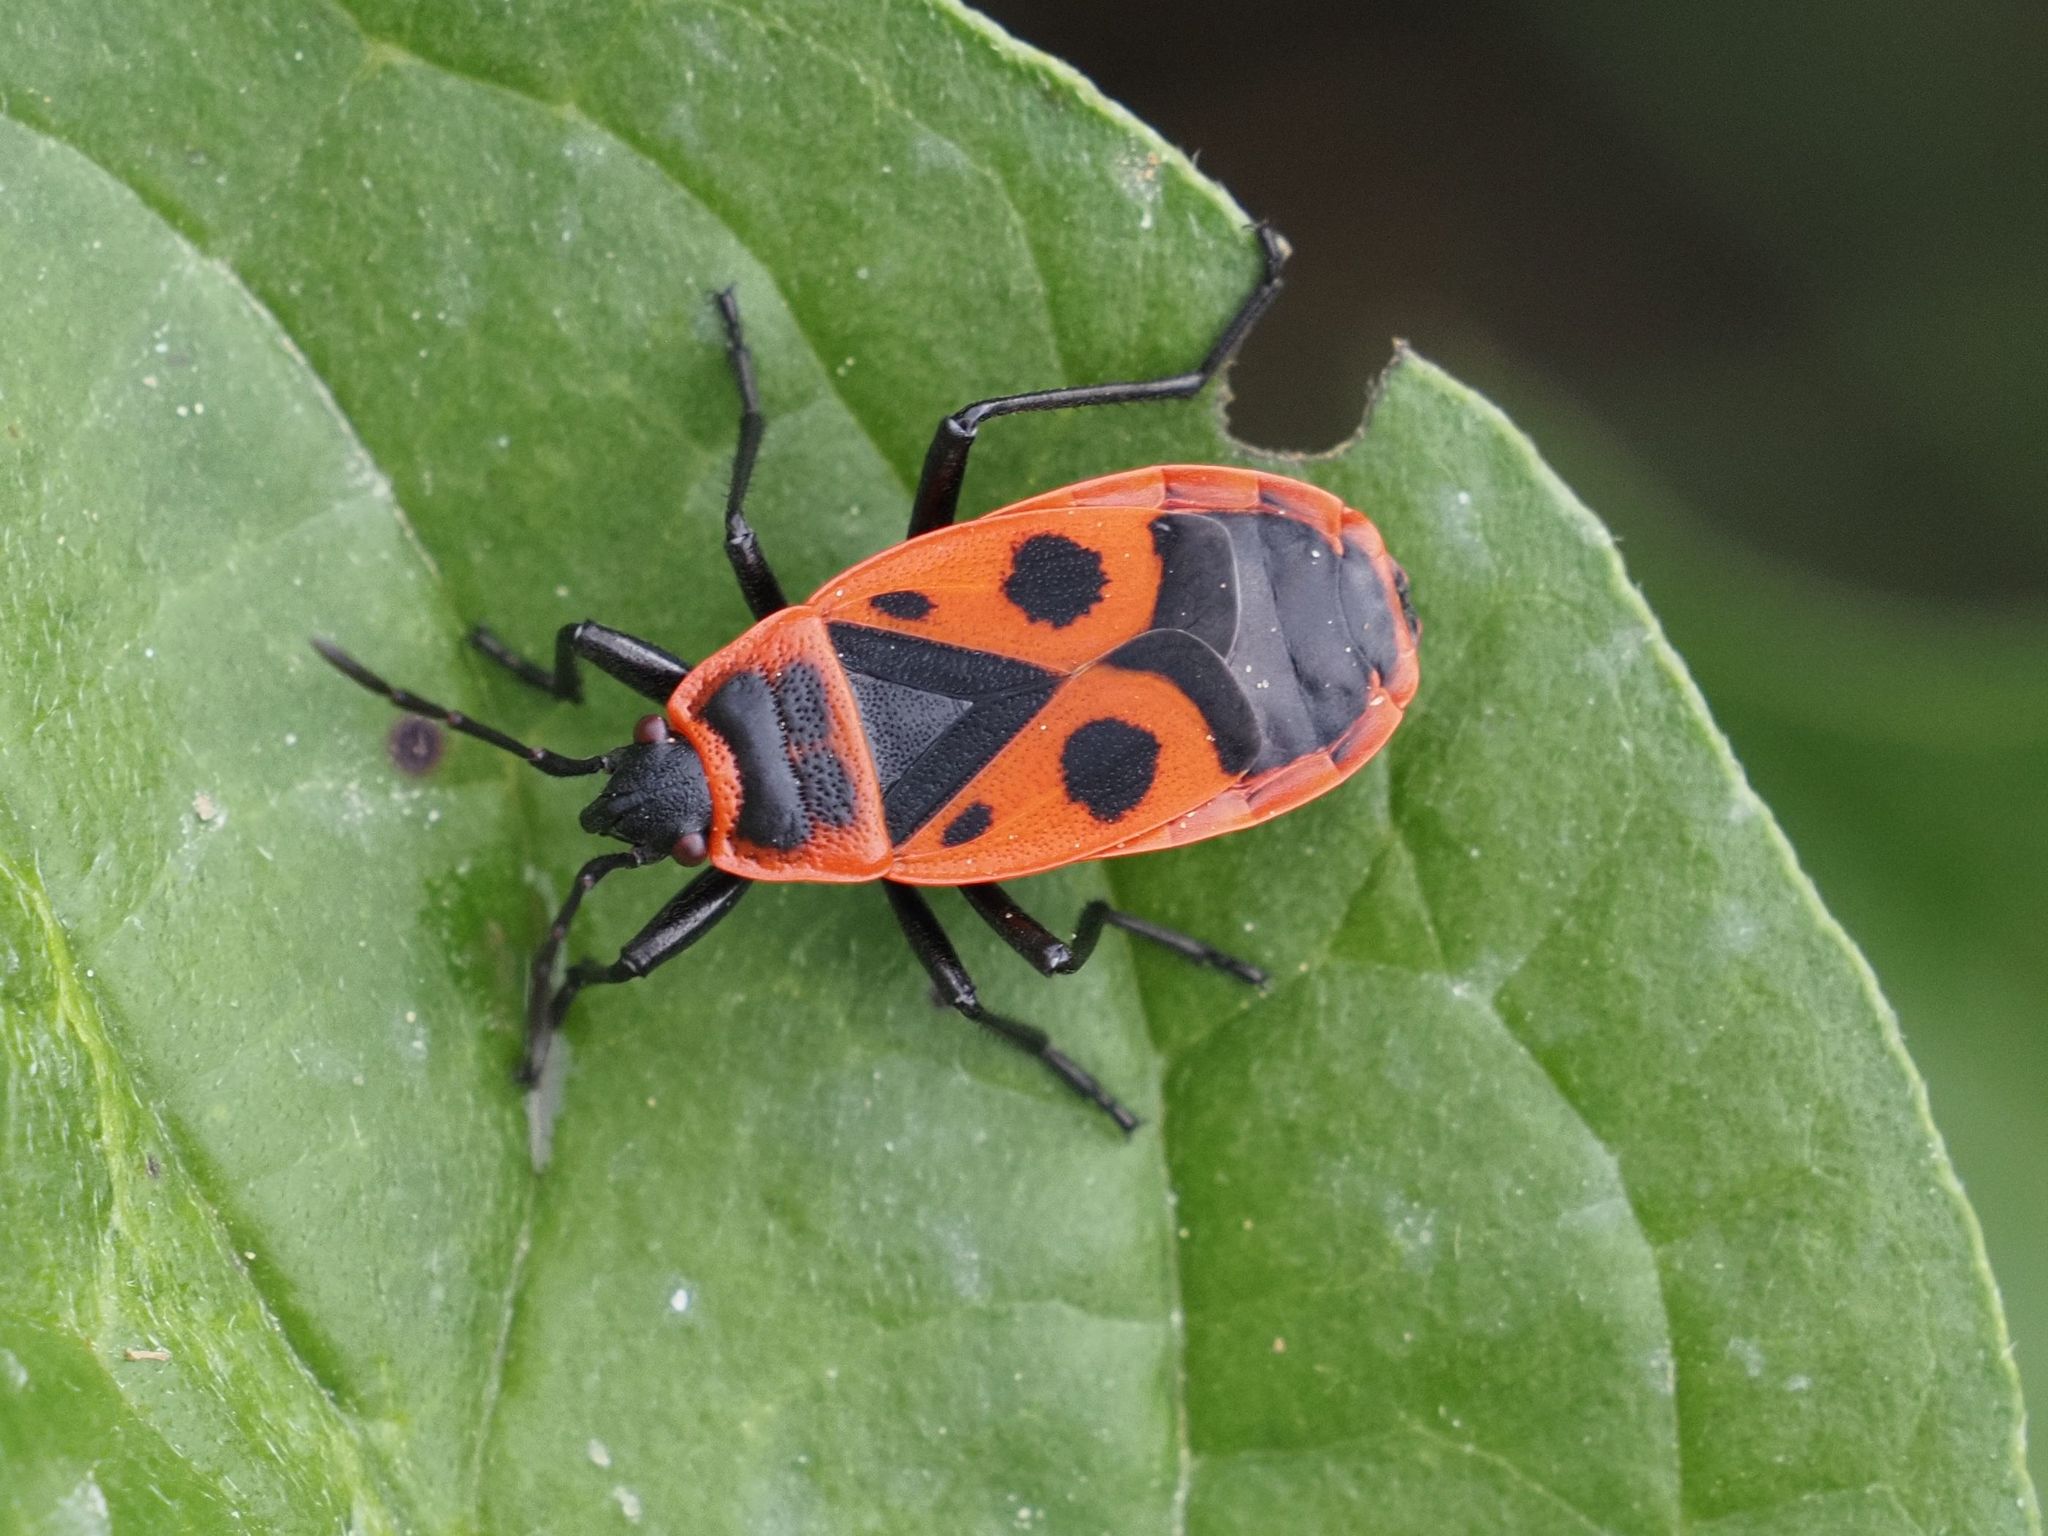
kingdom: Animalia
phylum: Arthropoda
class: Insecta
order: Hemiptera
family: Pyrrhocoridae
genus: Pyrrhocoris
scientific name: Pyrrhocoris apterus
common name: Firebug
